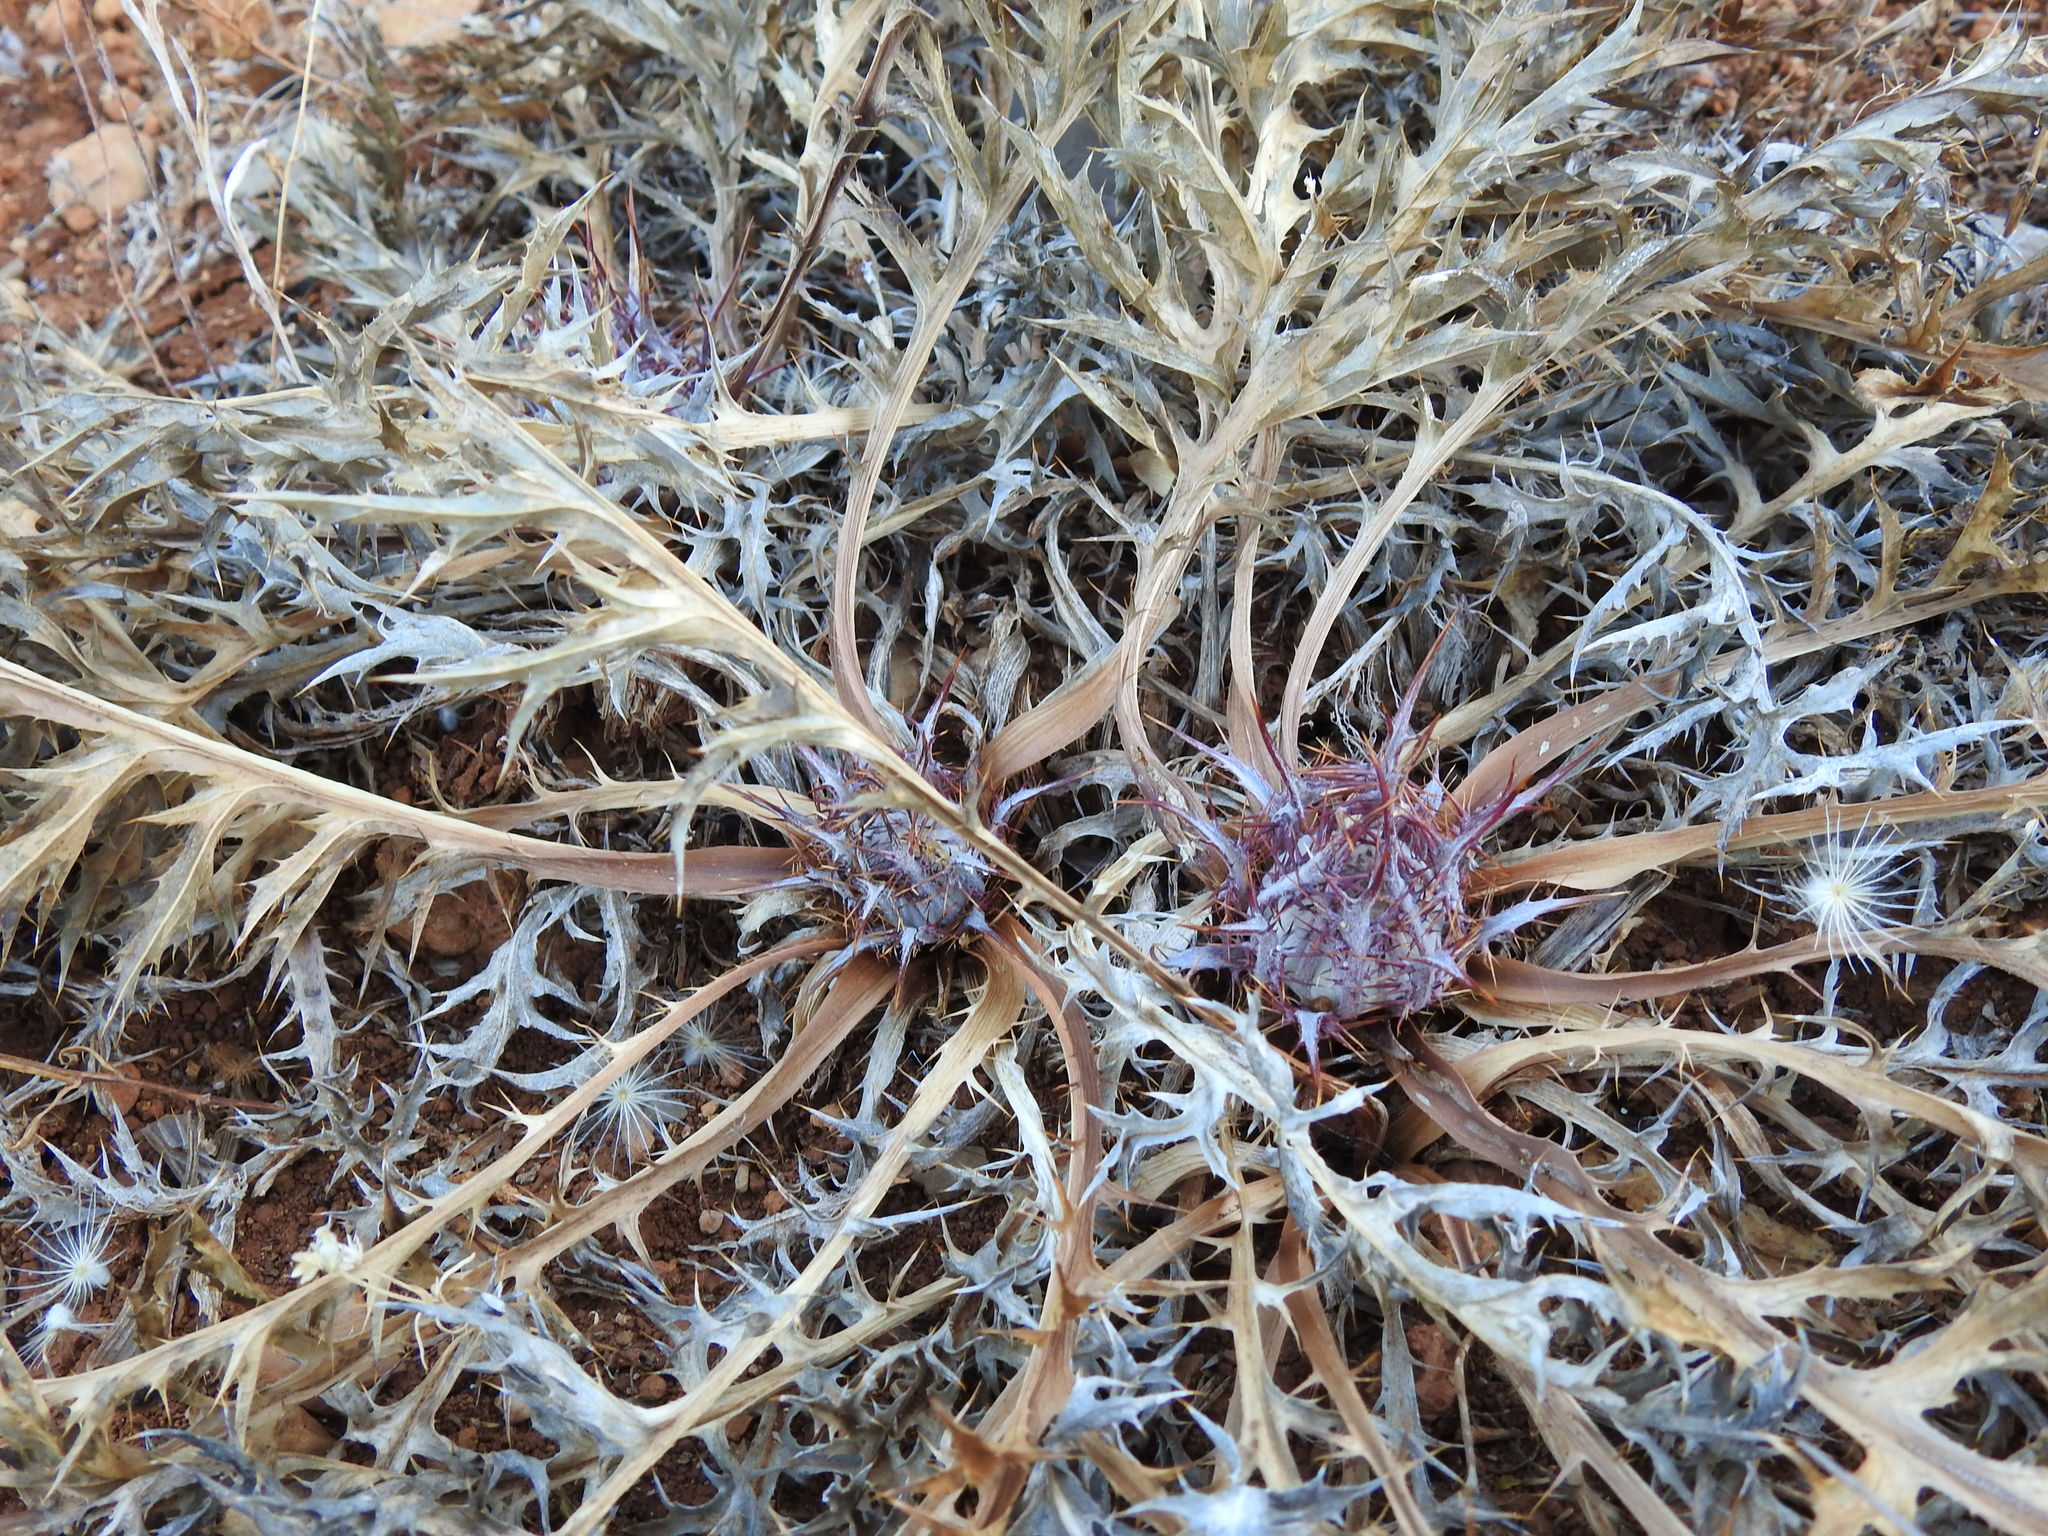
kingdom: Plantae
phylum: Tracheophyta
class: Magnoliopsida
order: Asterales
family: Asteraceae
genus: Chamaeleon
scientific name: Chamaeleon gummifer
